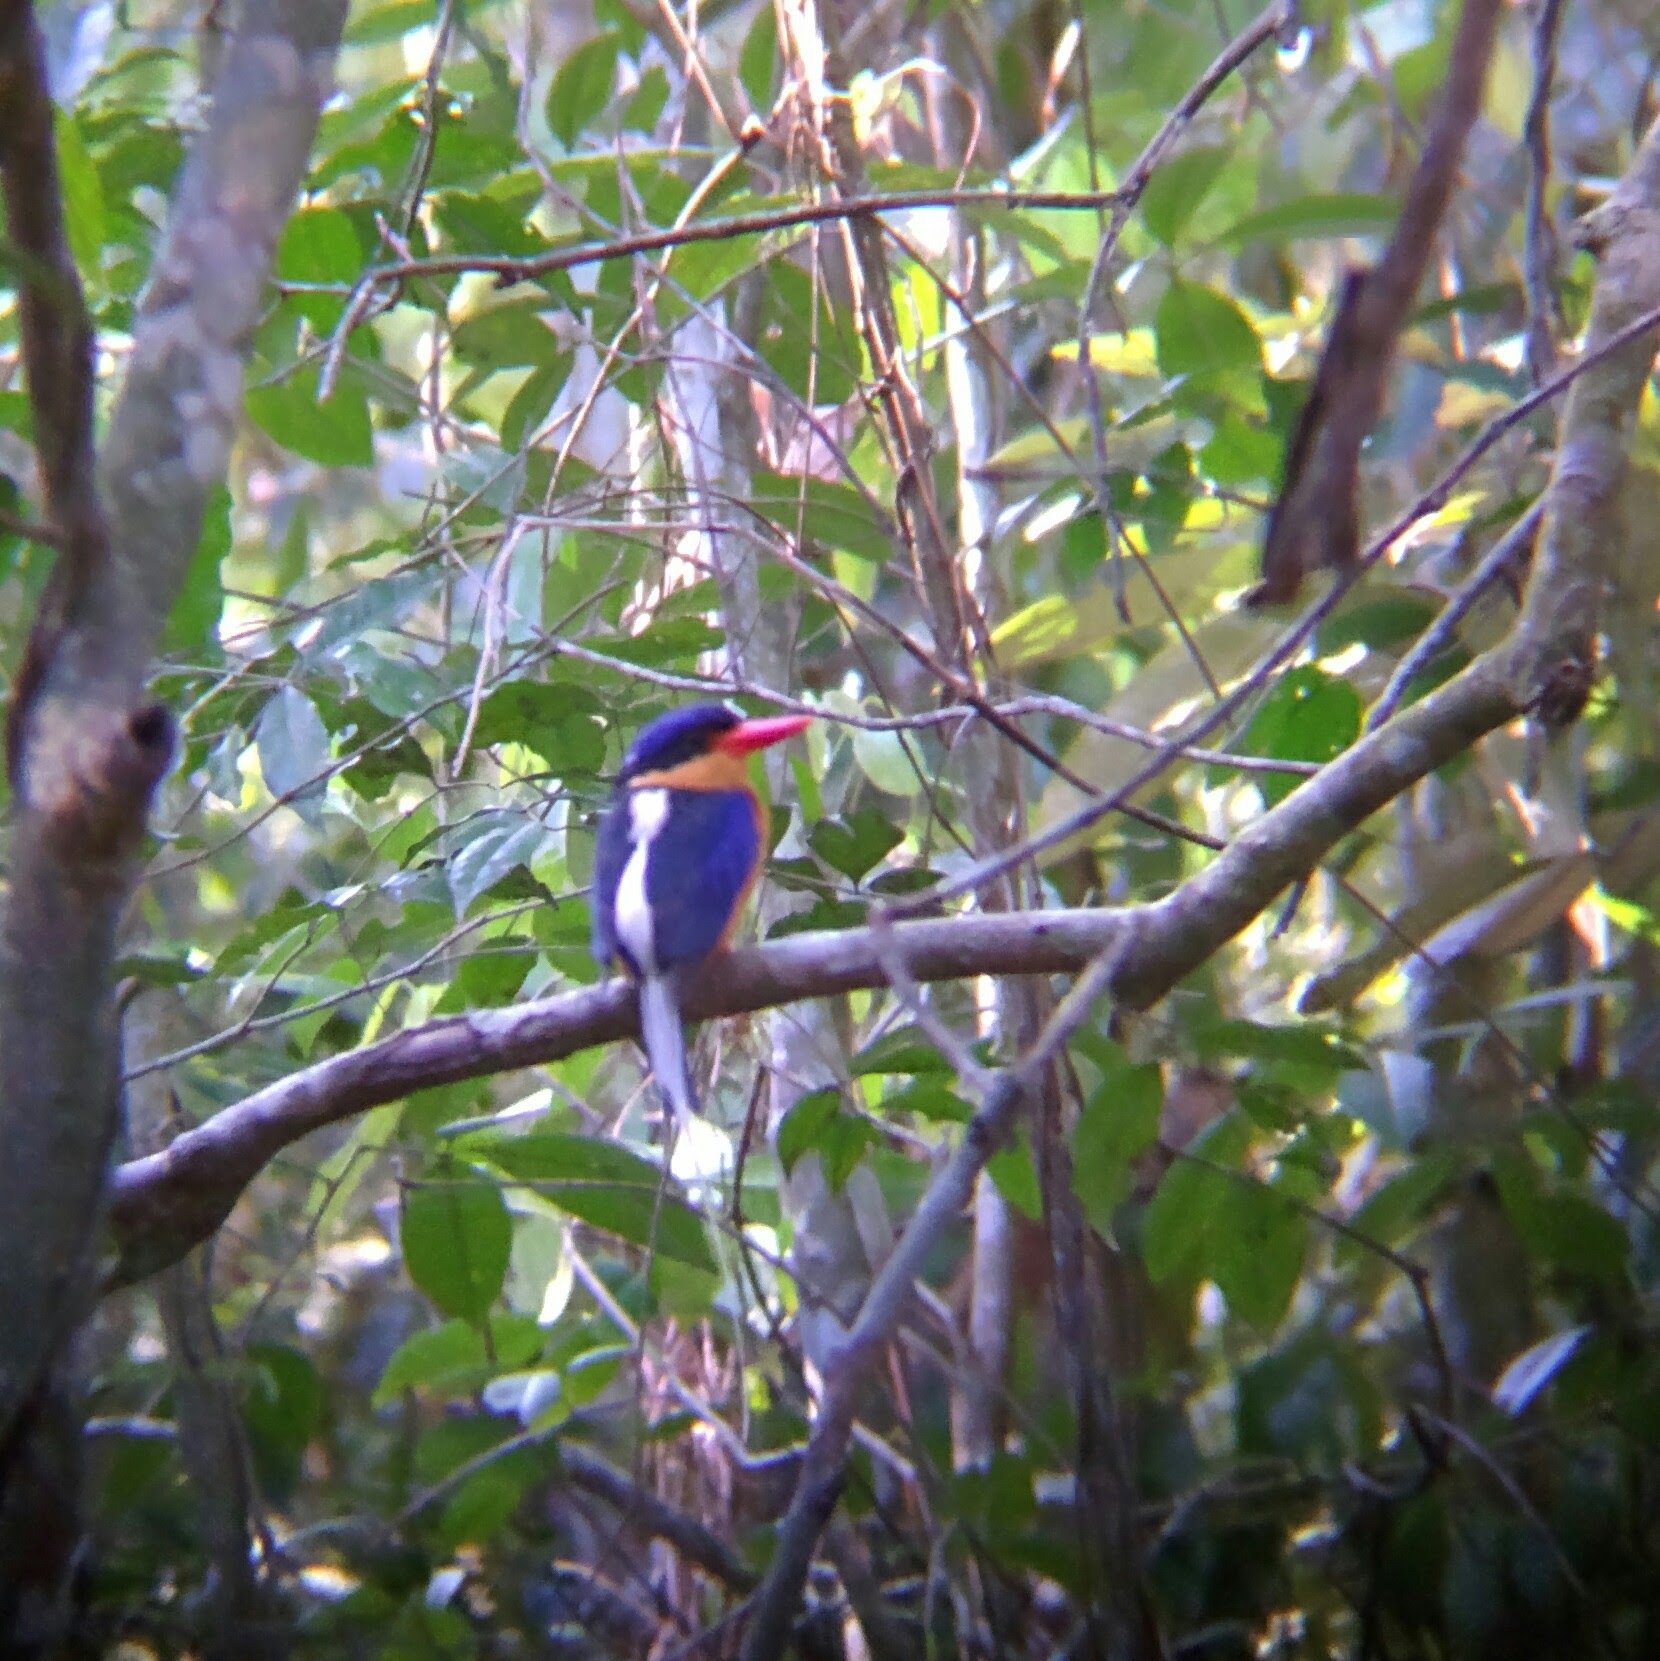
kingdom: Animalia
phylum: Chordata
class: Aves
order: Coraciiformes
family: Alcedinidae
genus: Tanysiptera
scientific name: Tanysiptera sylvia
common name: Buff-breasted paradise kingfisher
